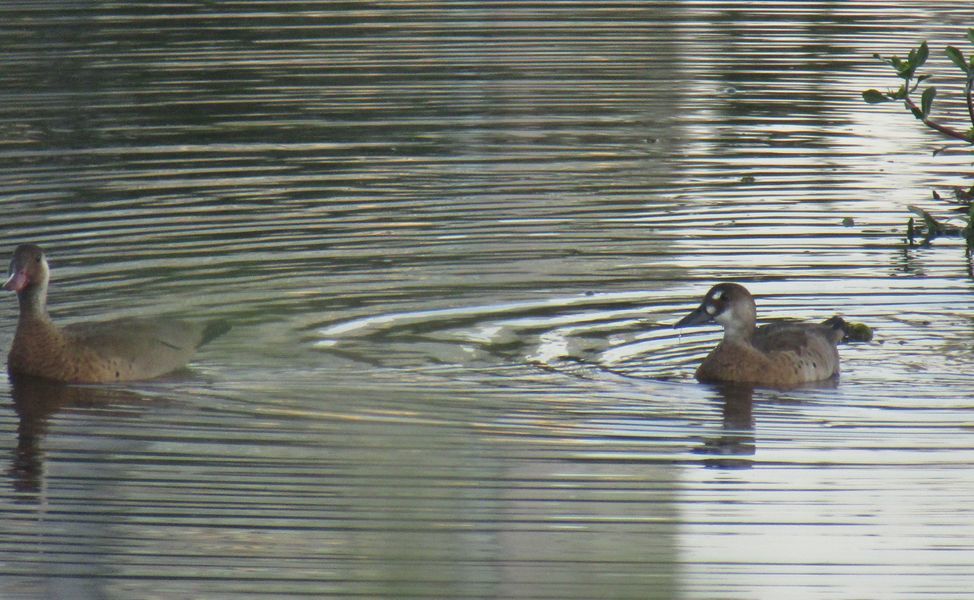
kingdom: Animalia
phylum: Chordata
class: Aves
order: Anseriformes
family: Anatidae
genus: Amazonetta
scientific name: Amazonetta brasiliensis
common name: Brazilian teal
